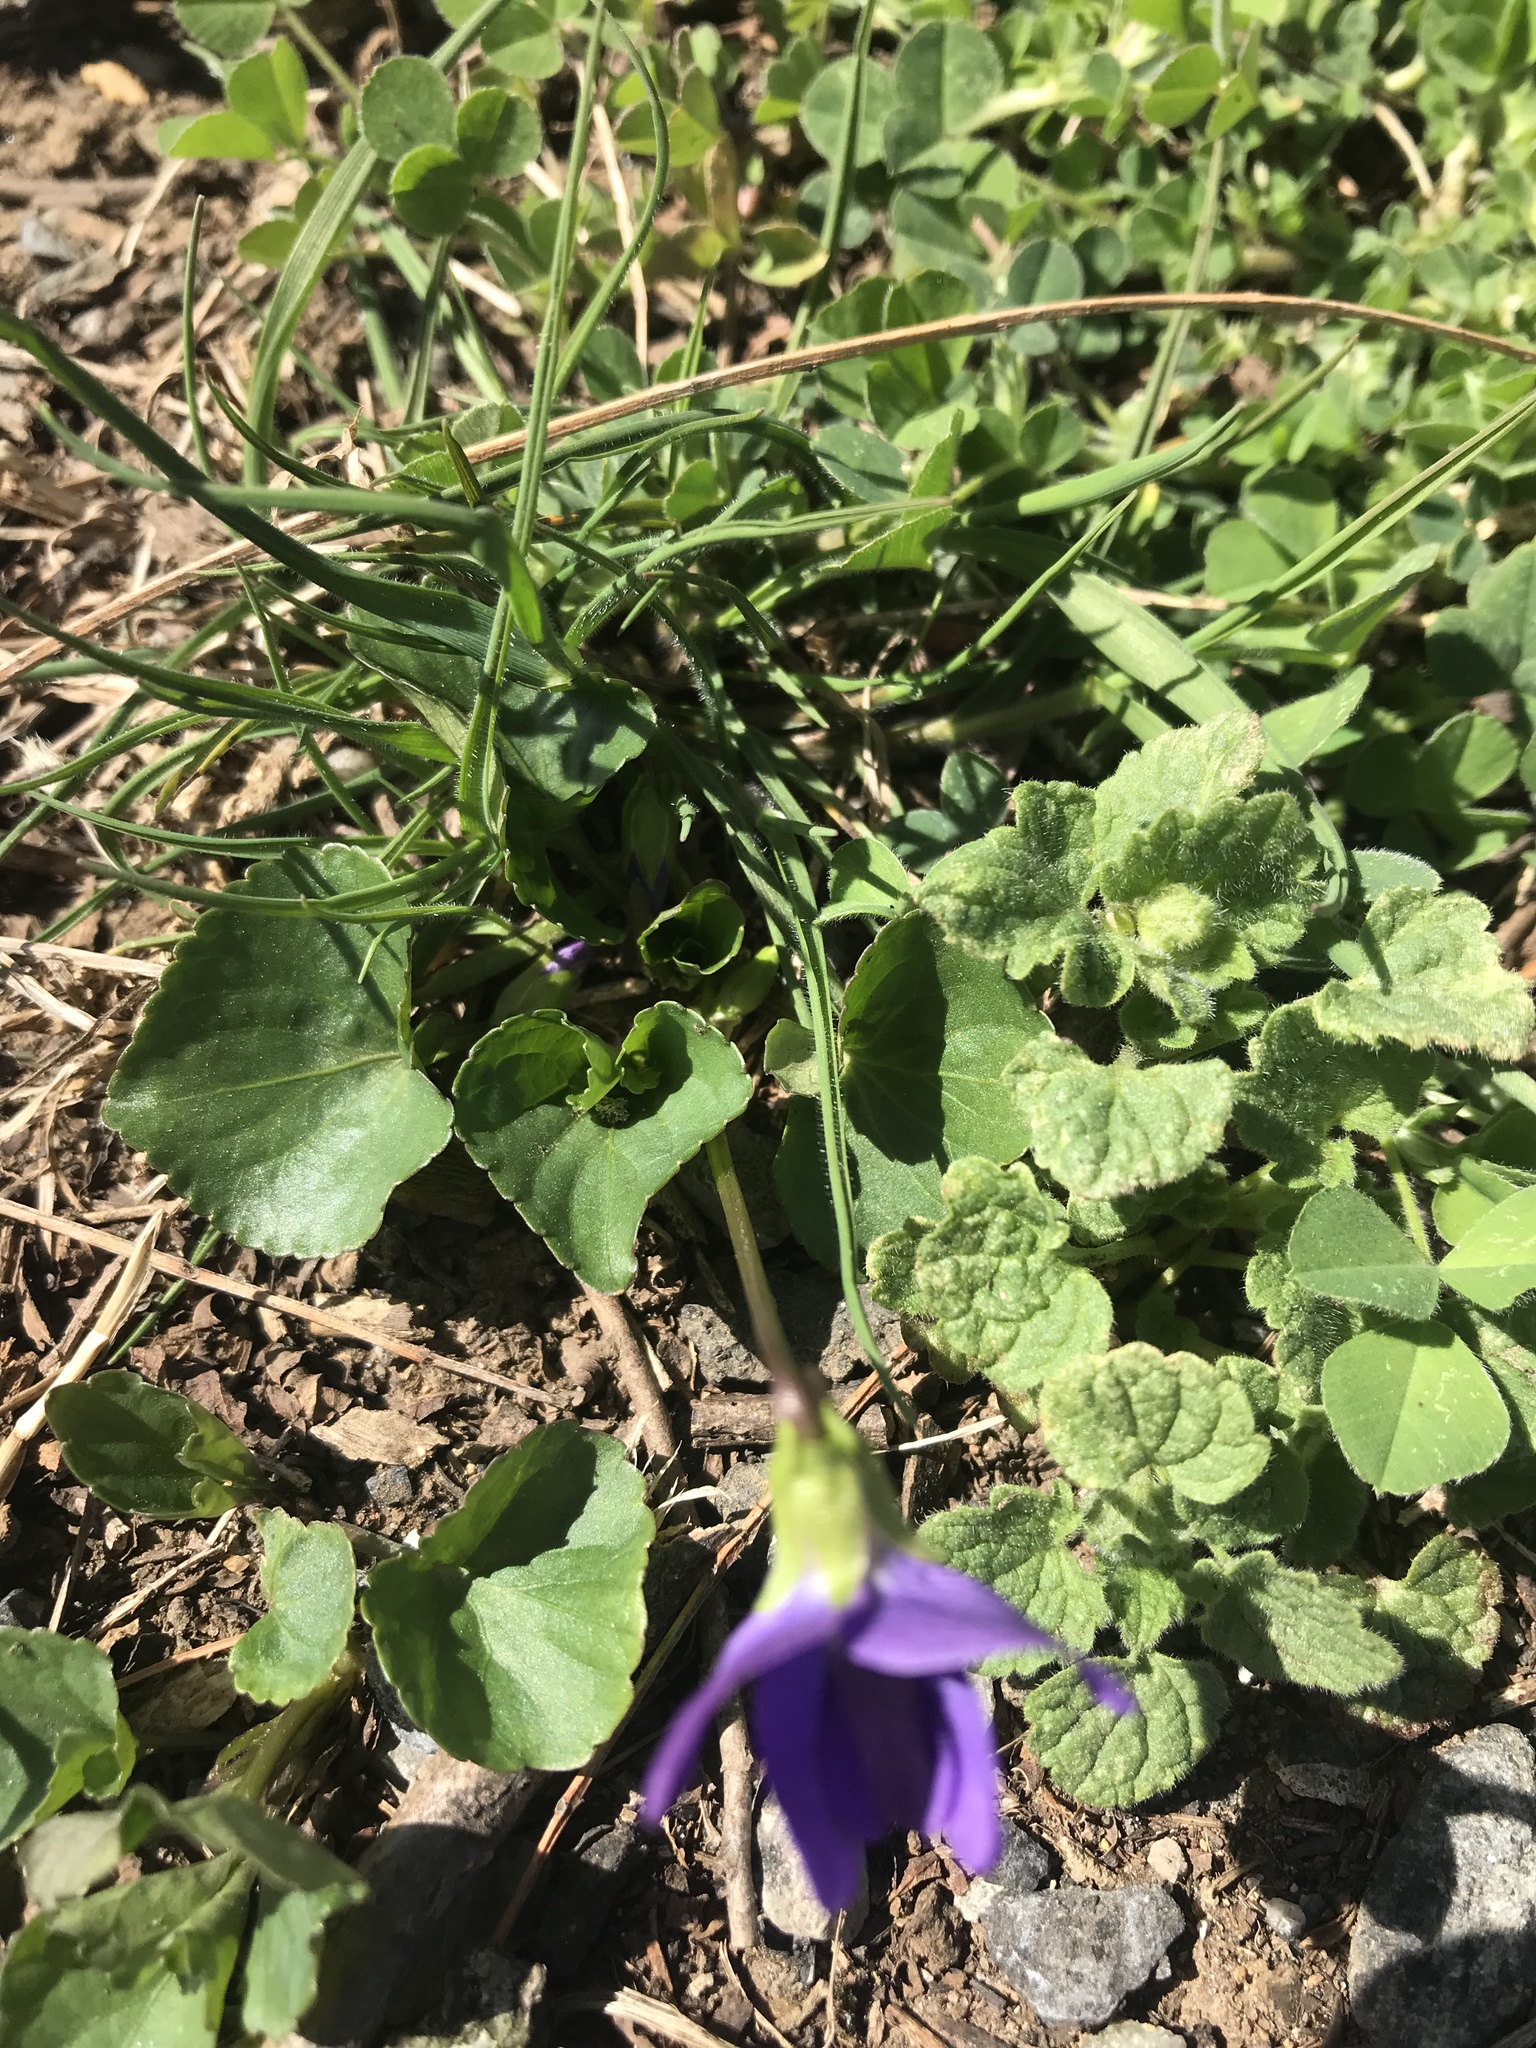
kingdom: Plantae
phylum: Tracheophyta
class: Magnoliopsida
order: Malpighiales
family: Violaceae
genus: Viola
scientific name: Viola sororia
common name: Dooryard violet
